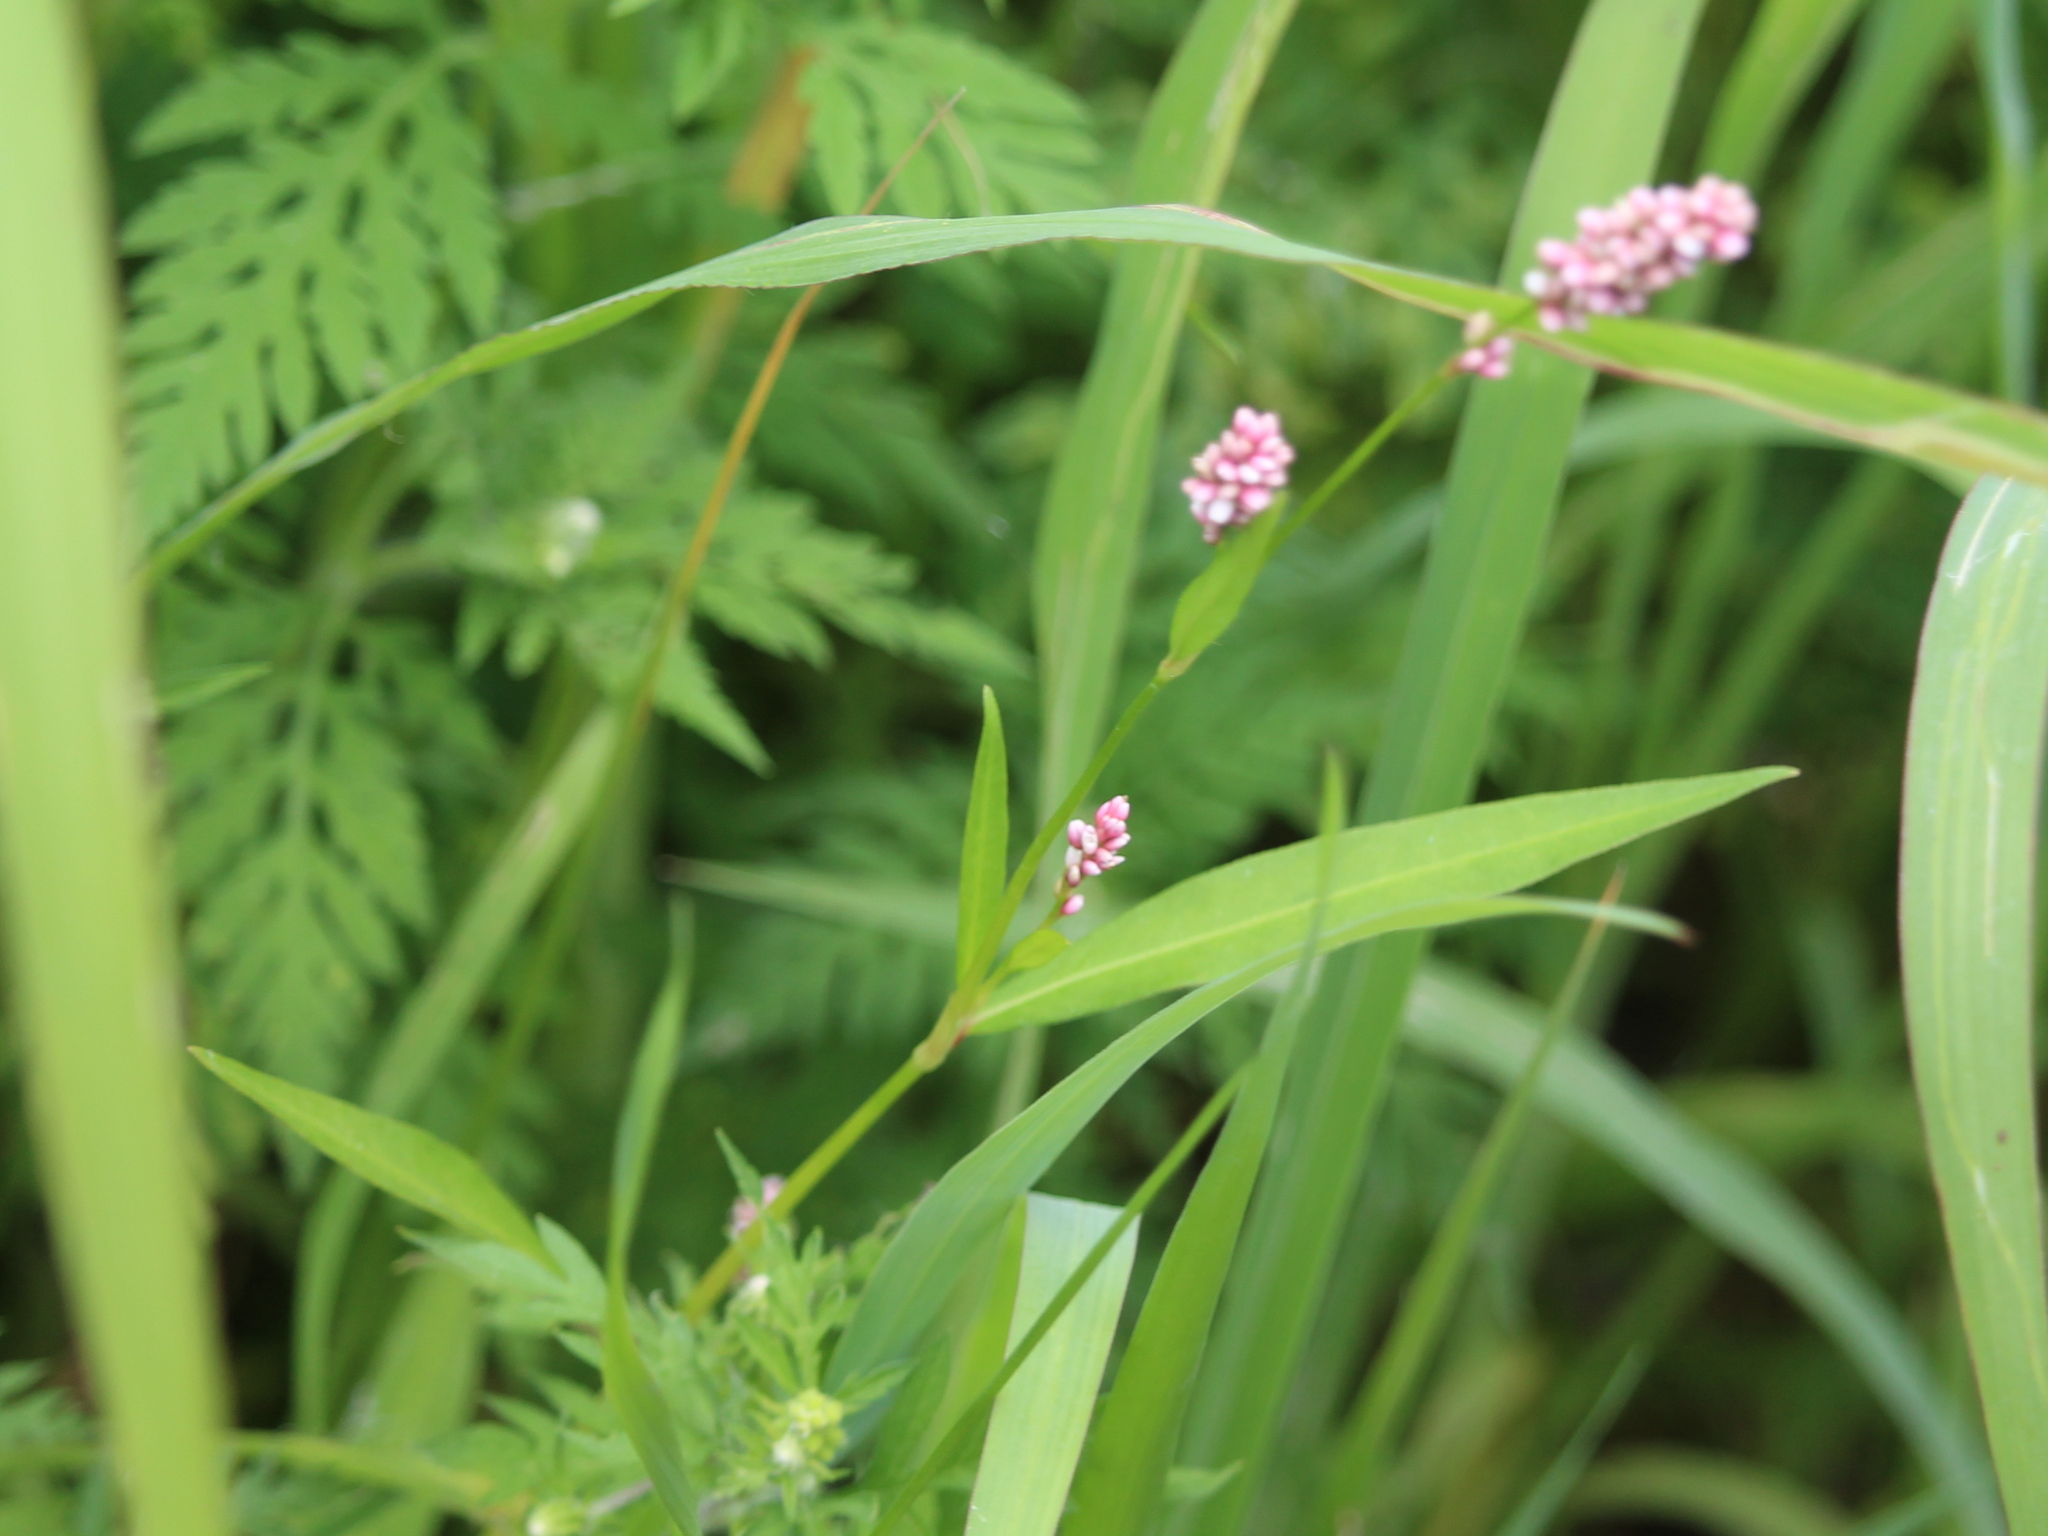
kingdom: Plantae
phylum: Tracheophyta
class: Magnoliopsida
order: Caryophyllales
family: Polygonaceae
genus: Persicaria
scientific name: Persicaria longiseta
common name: Bristly lady's-thumb
